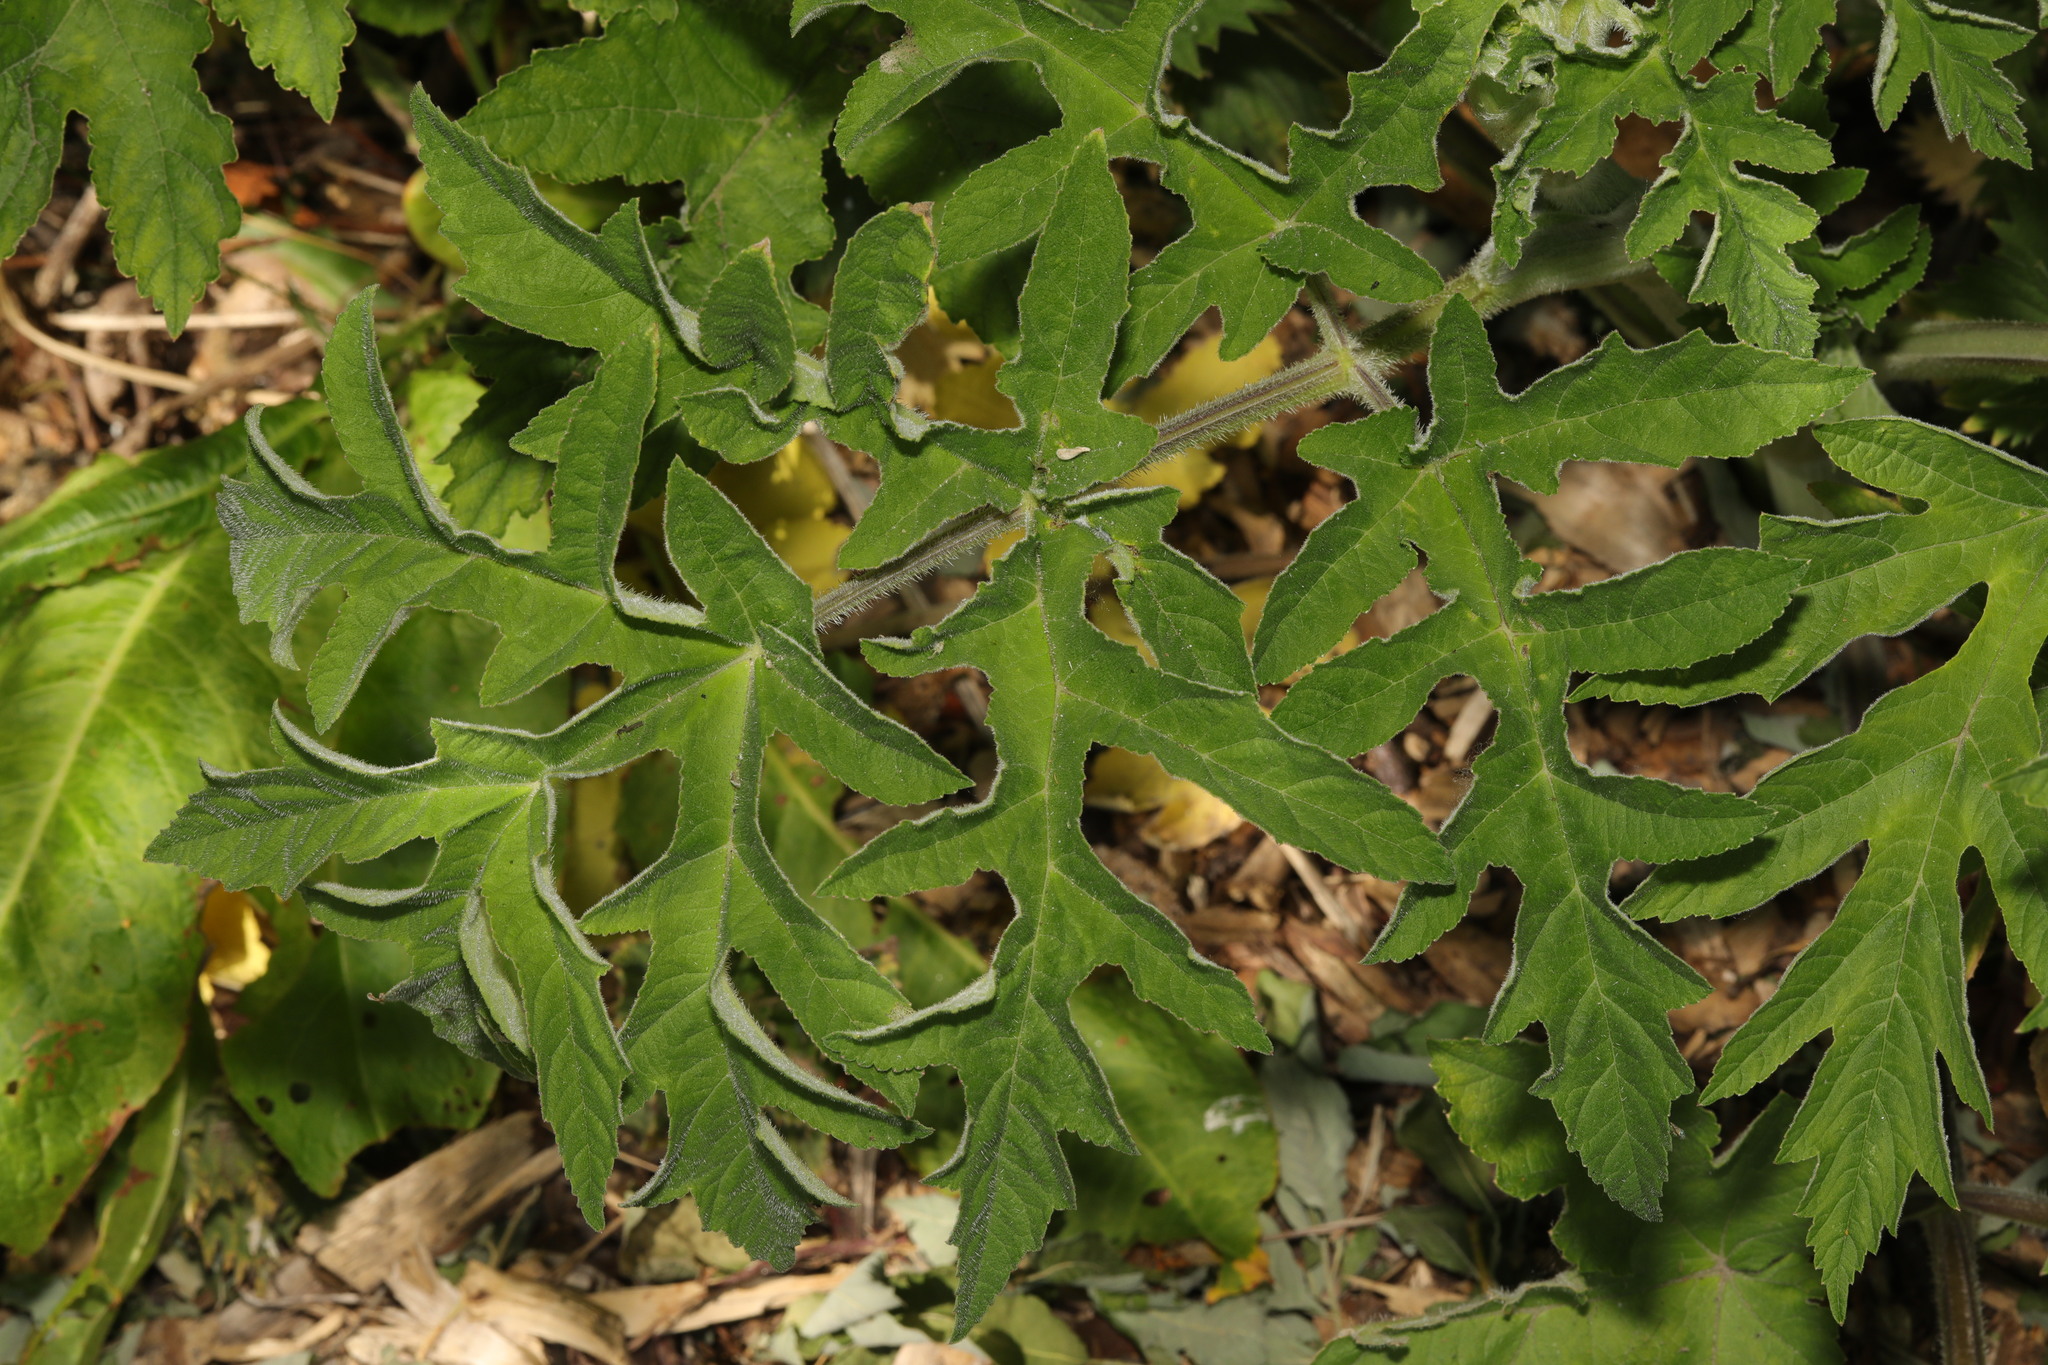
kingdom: Plantae
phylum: Tracheophyta
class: Magnoliopsida
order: Apiales
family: Apiaceae
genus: Heracleum
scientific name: Heracleum sphondylium
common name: Hogweed
